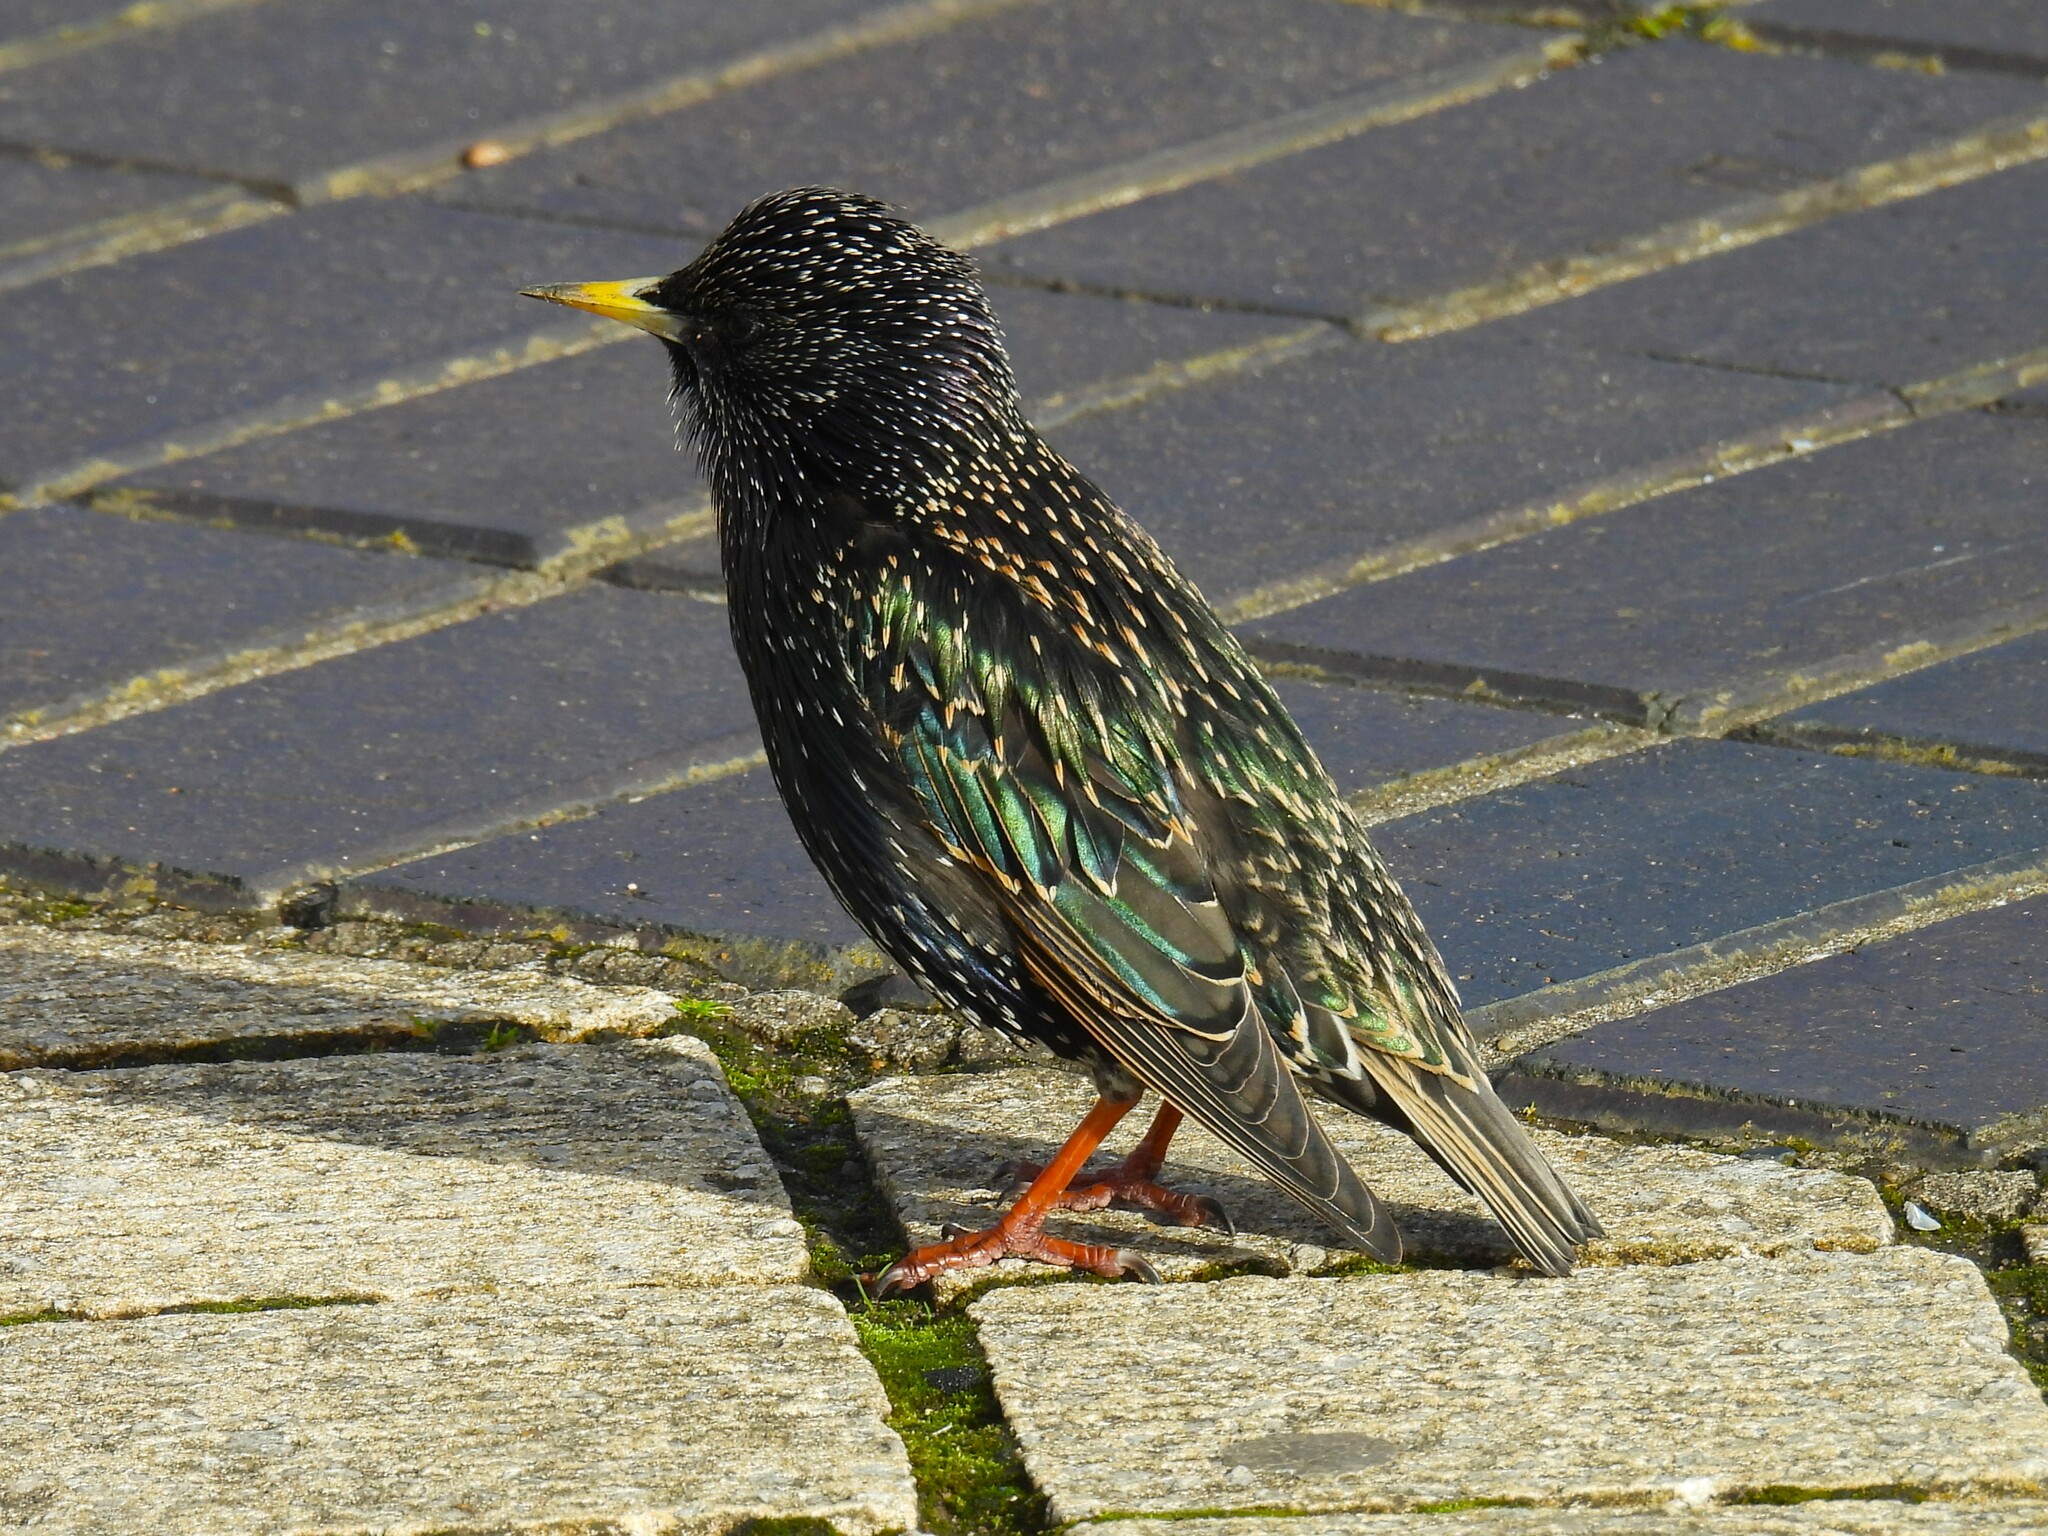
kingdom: Animalia
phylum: Chordata
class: Aves
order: Passeriformes
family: Sturnidae
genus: Sturnus
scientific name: Sturnus vulgaris
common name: Common starling
